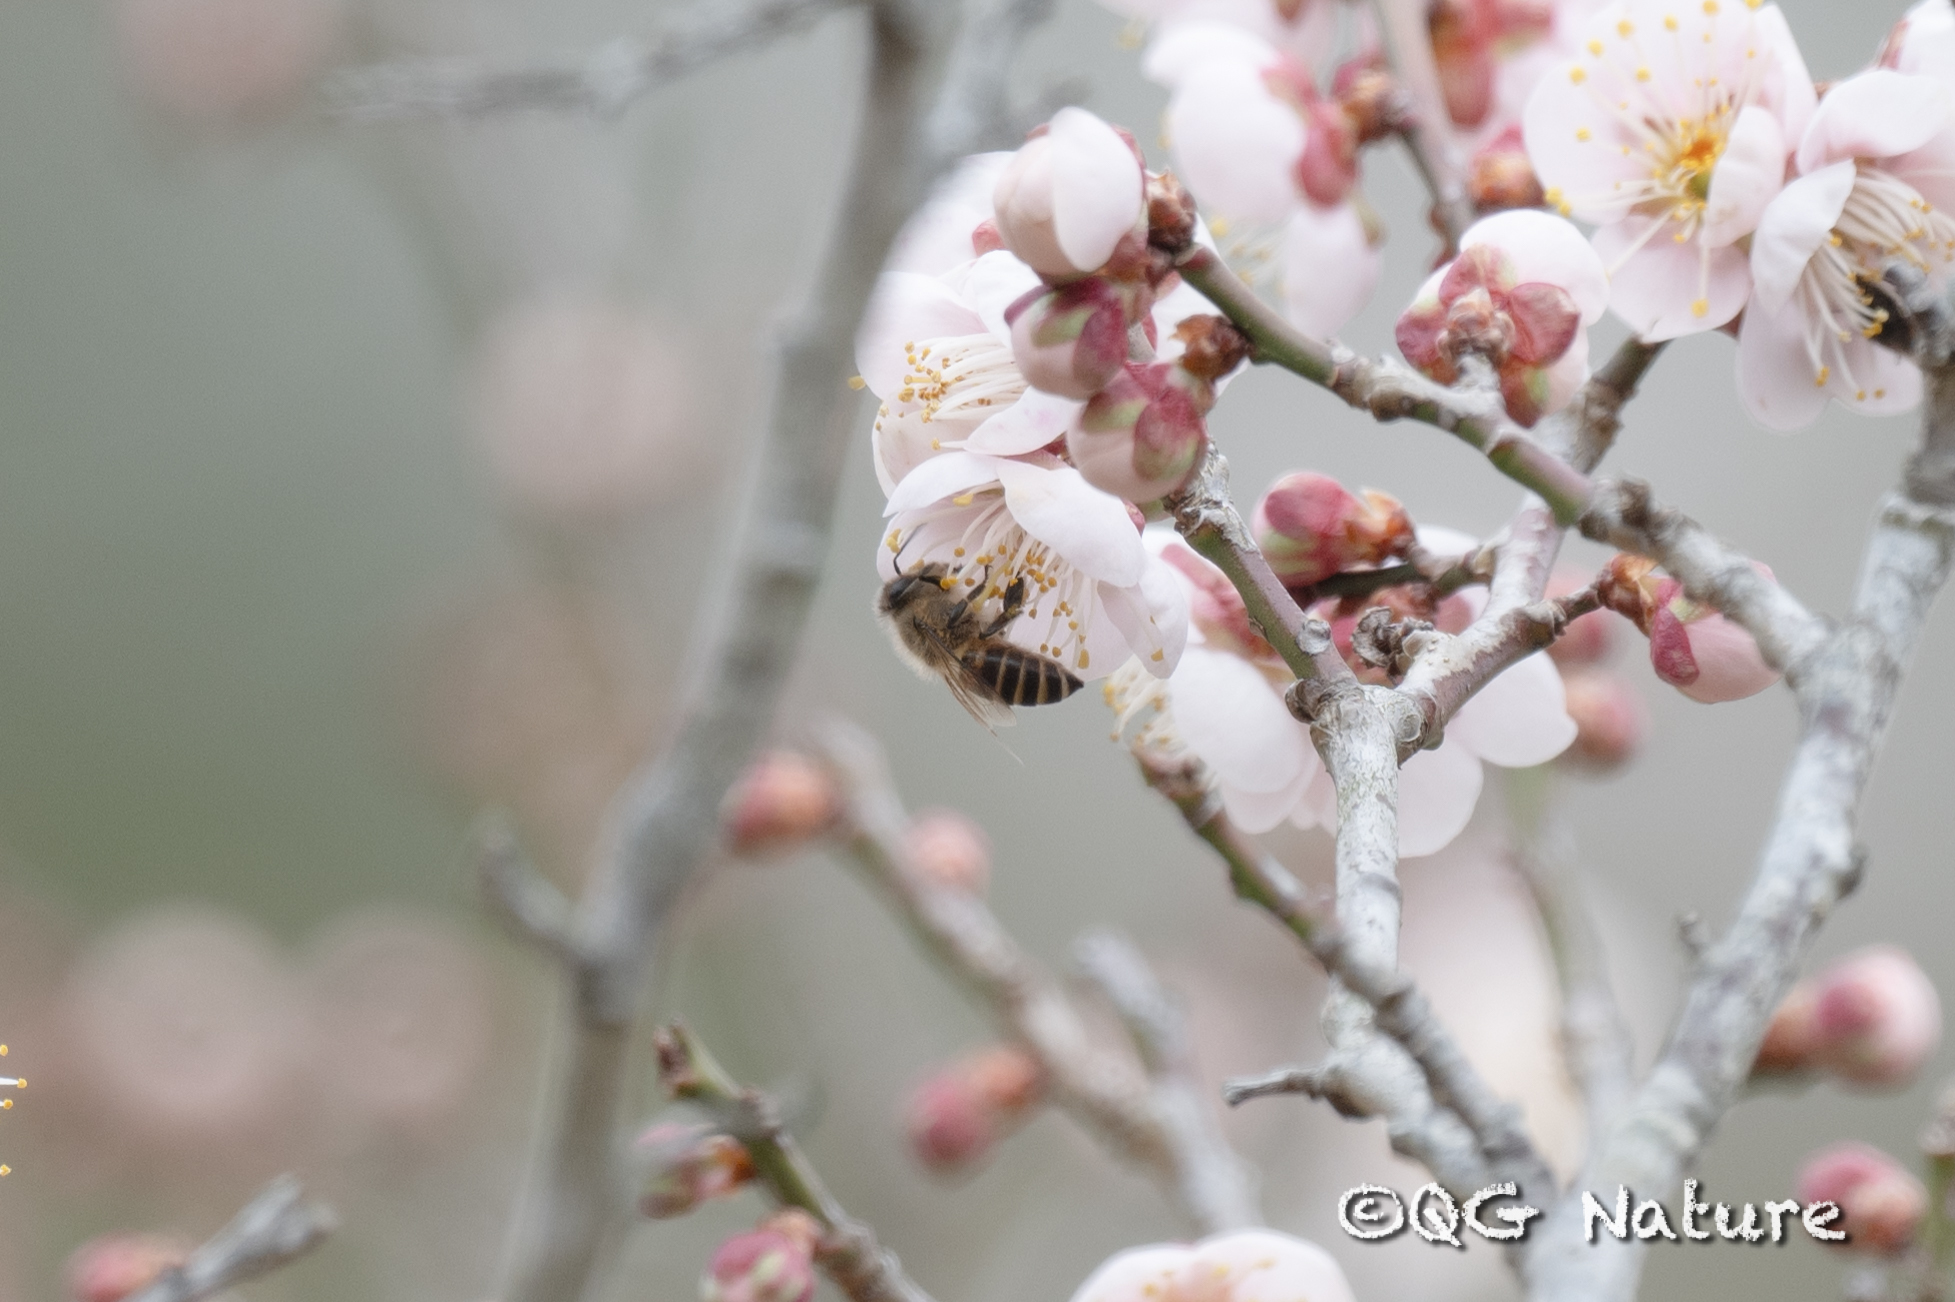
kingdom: Animalia
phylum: Arthropoda
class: Insecta
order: Hymenoptera
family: Apidae
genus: Apis
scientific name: Apis cerana
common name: Honey bee
